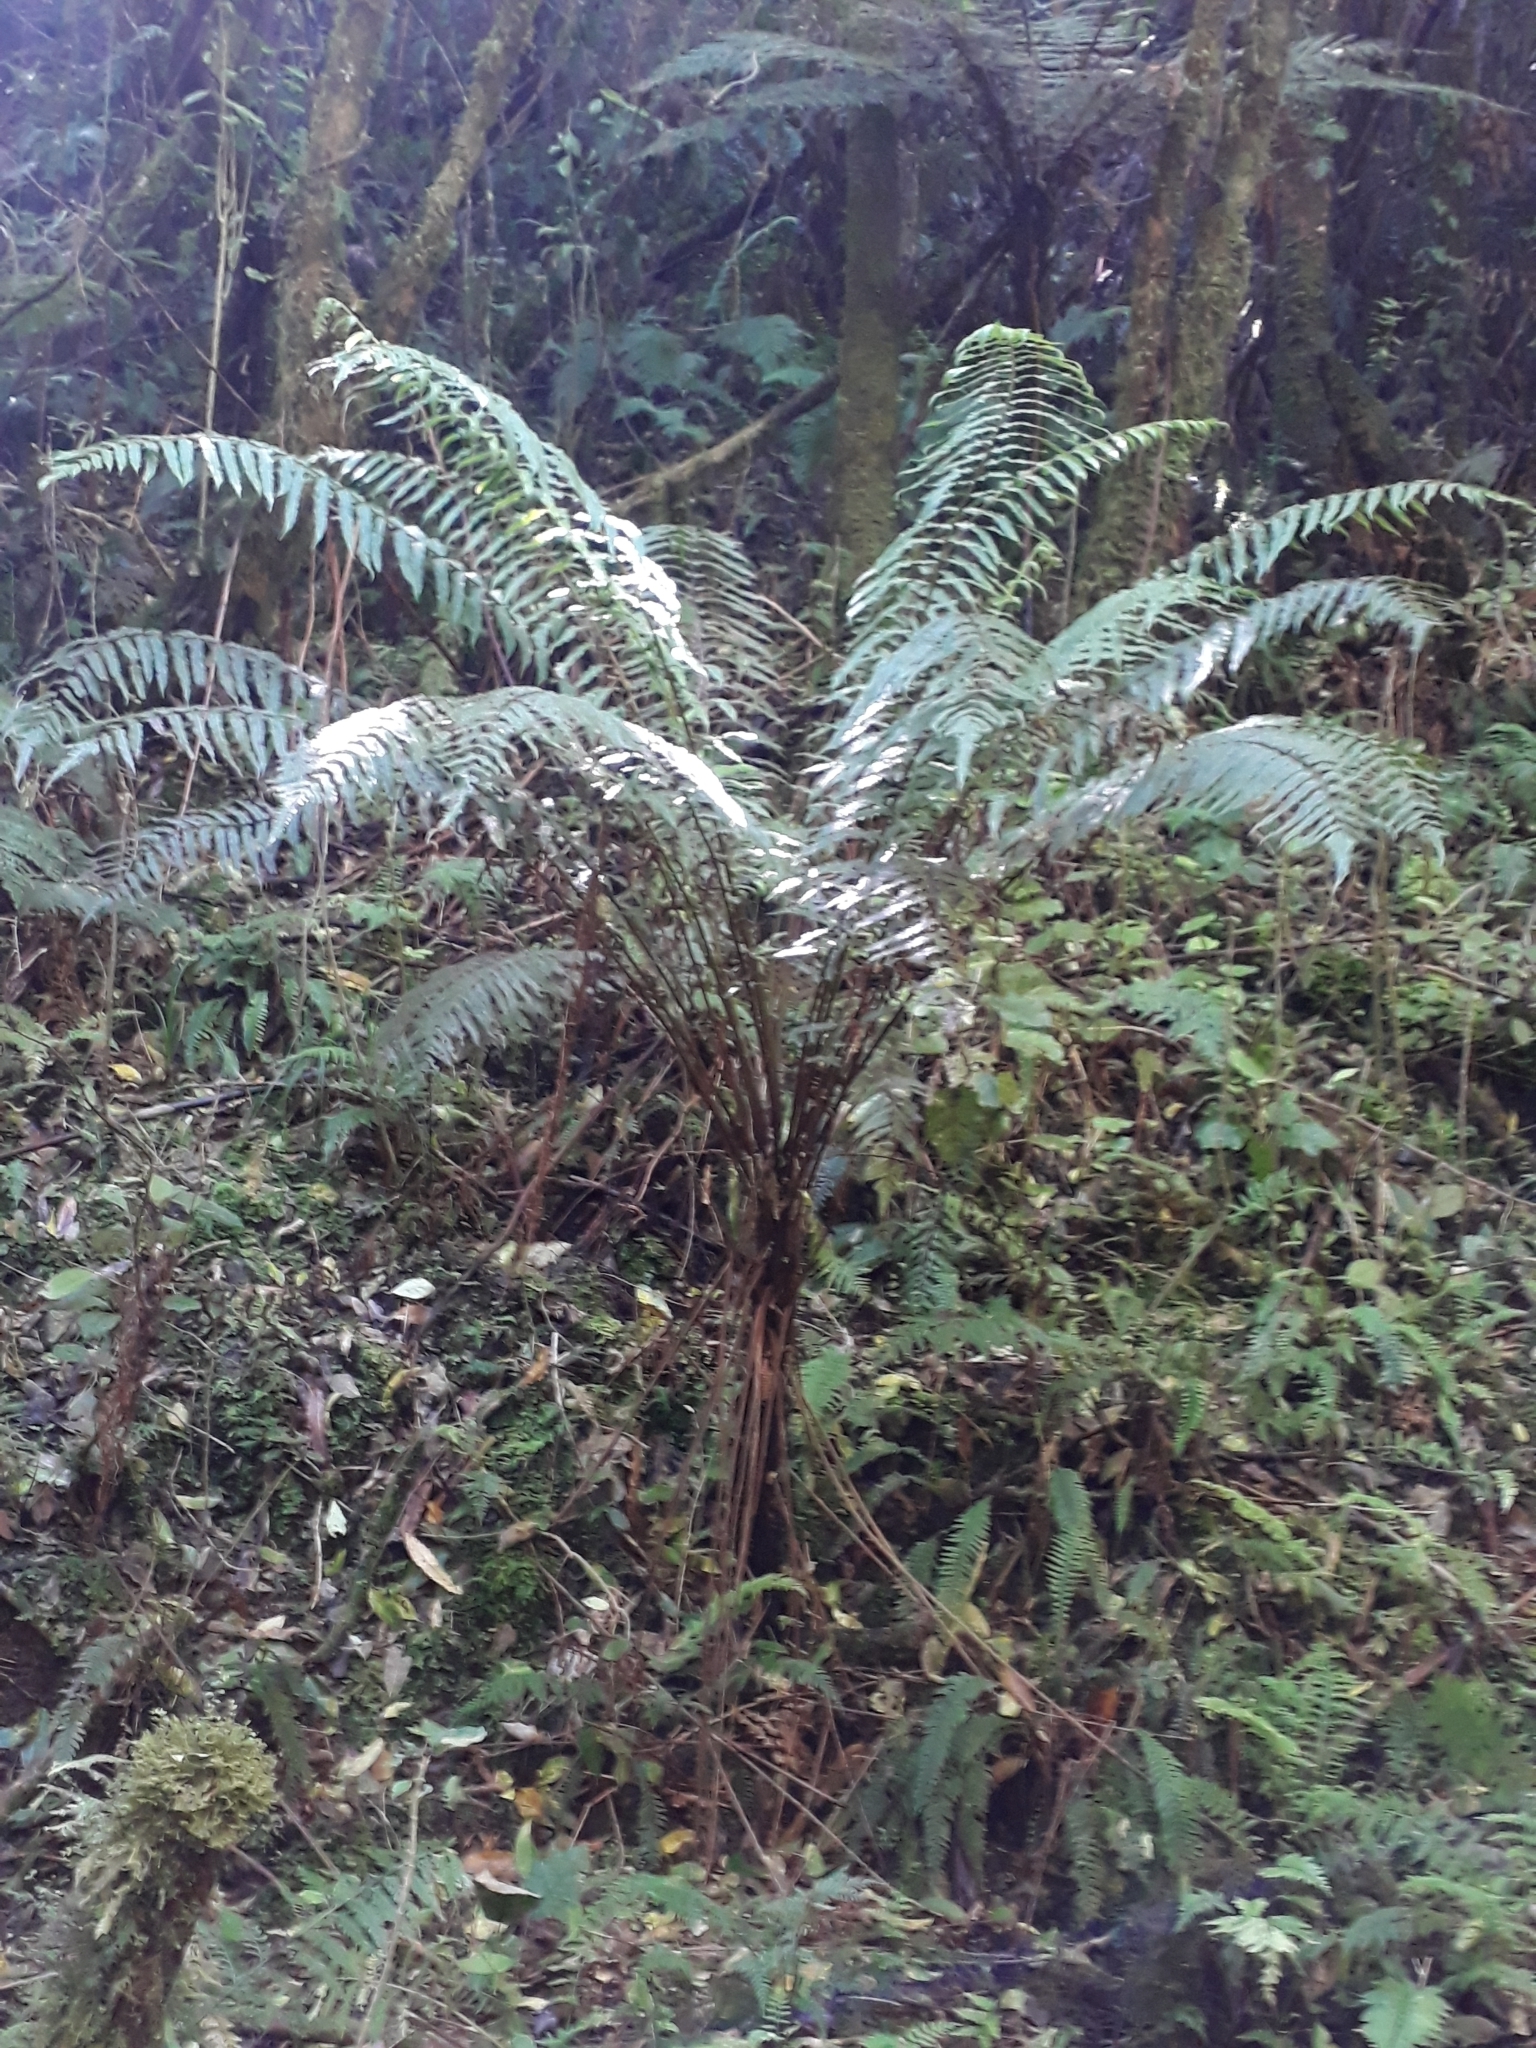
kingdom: Plantae
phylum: Tracheophyta
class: Polypodiopsida
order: Polypodiales
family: Thelypteridaceae
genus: Pakau
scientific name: Pakau pennigera
